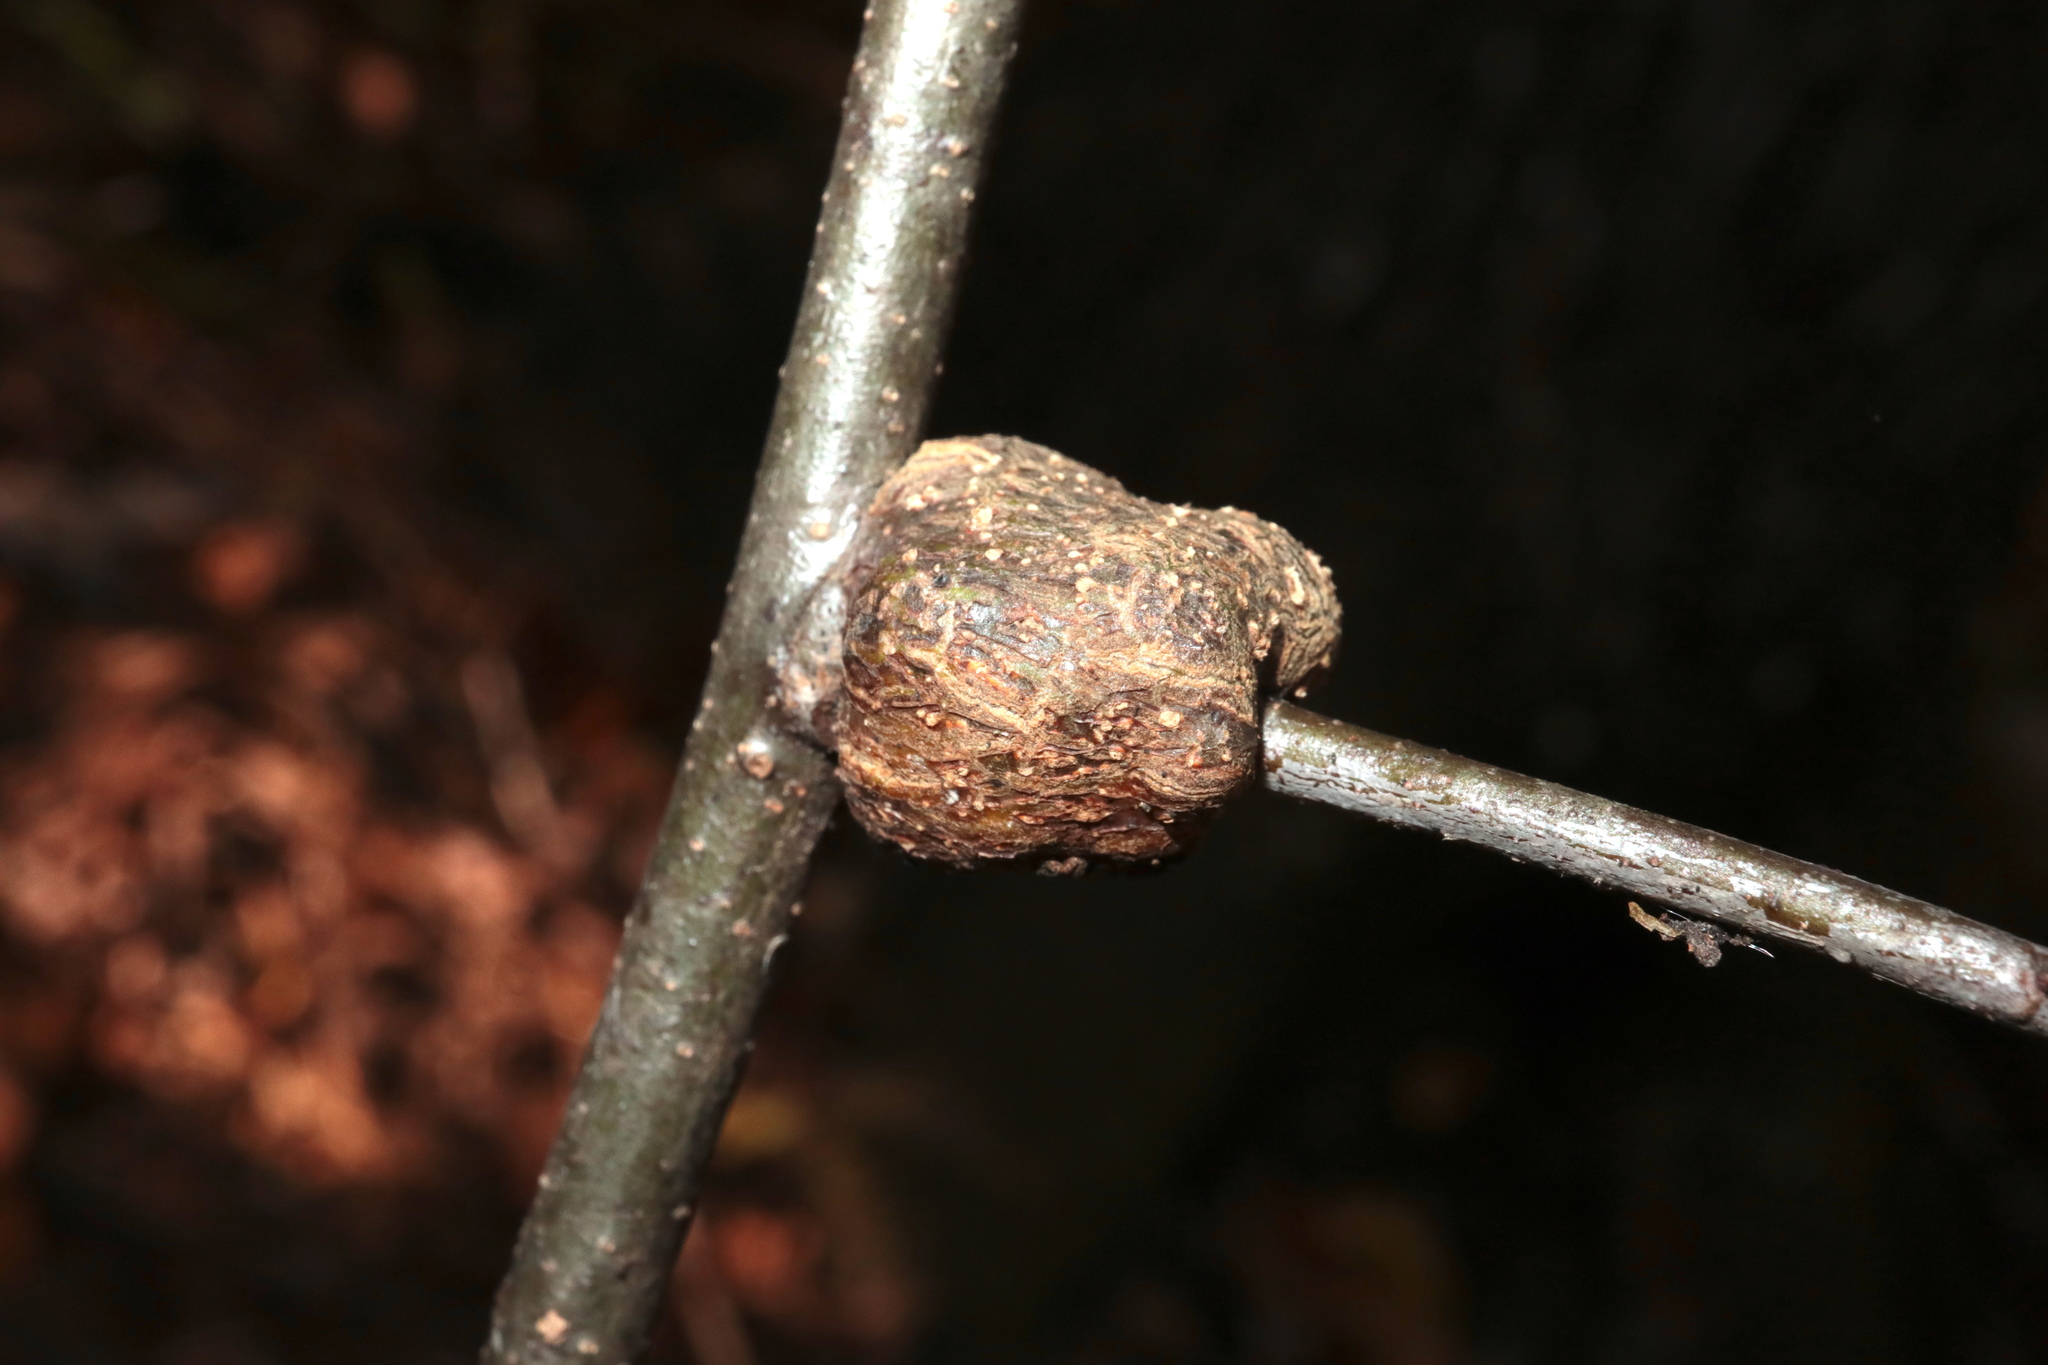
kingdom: Animalia
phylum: Arthropoda
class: Insecta
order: Hymenoptera
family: Cynipidae
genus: Callirhytis
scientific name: Callirhytis
